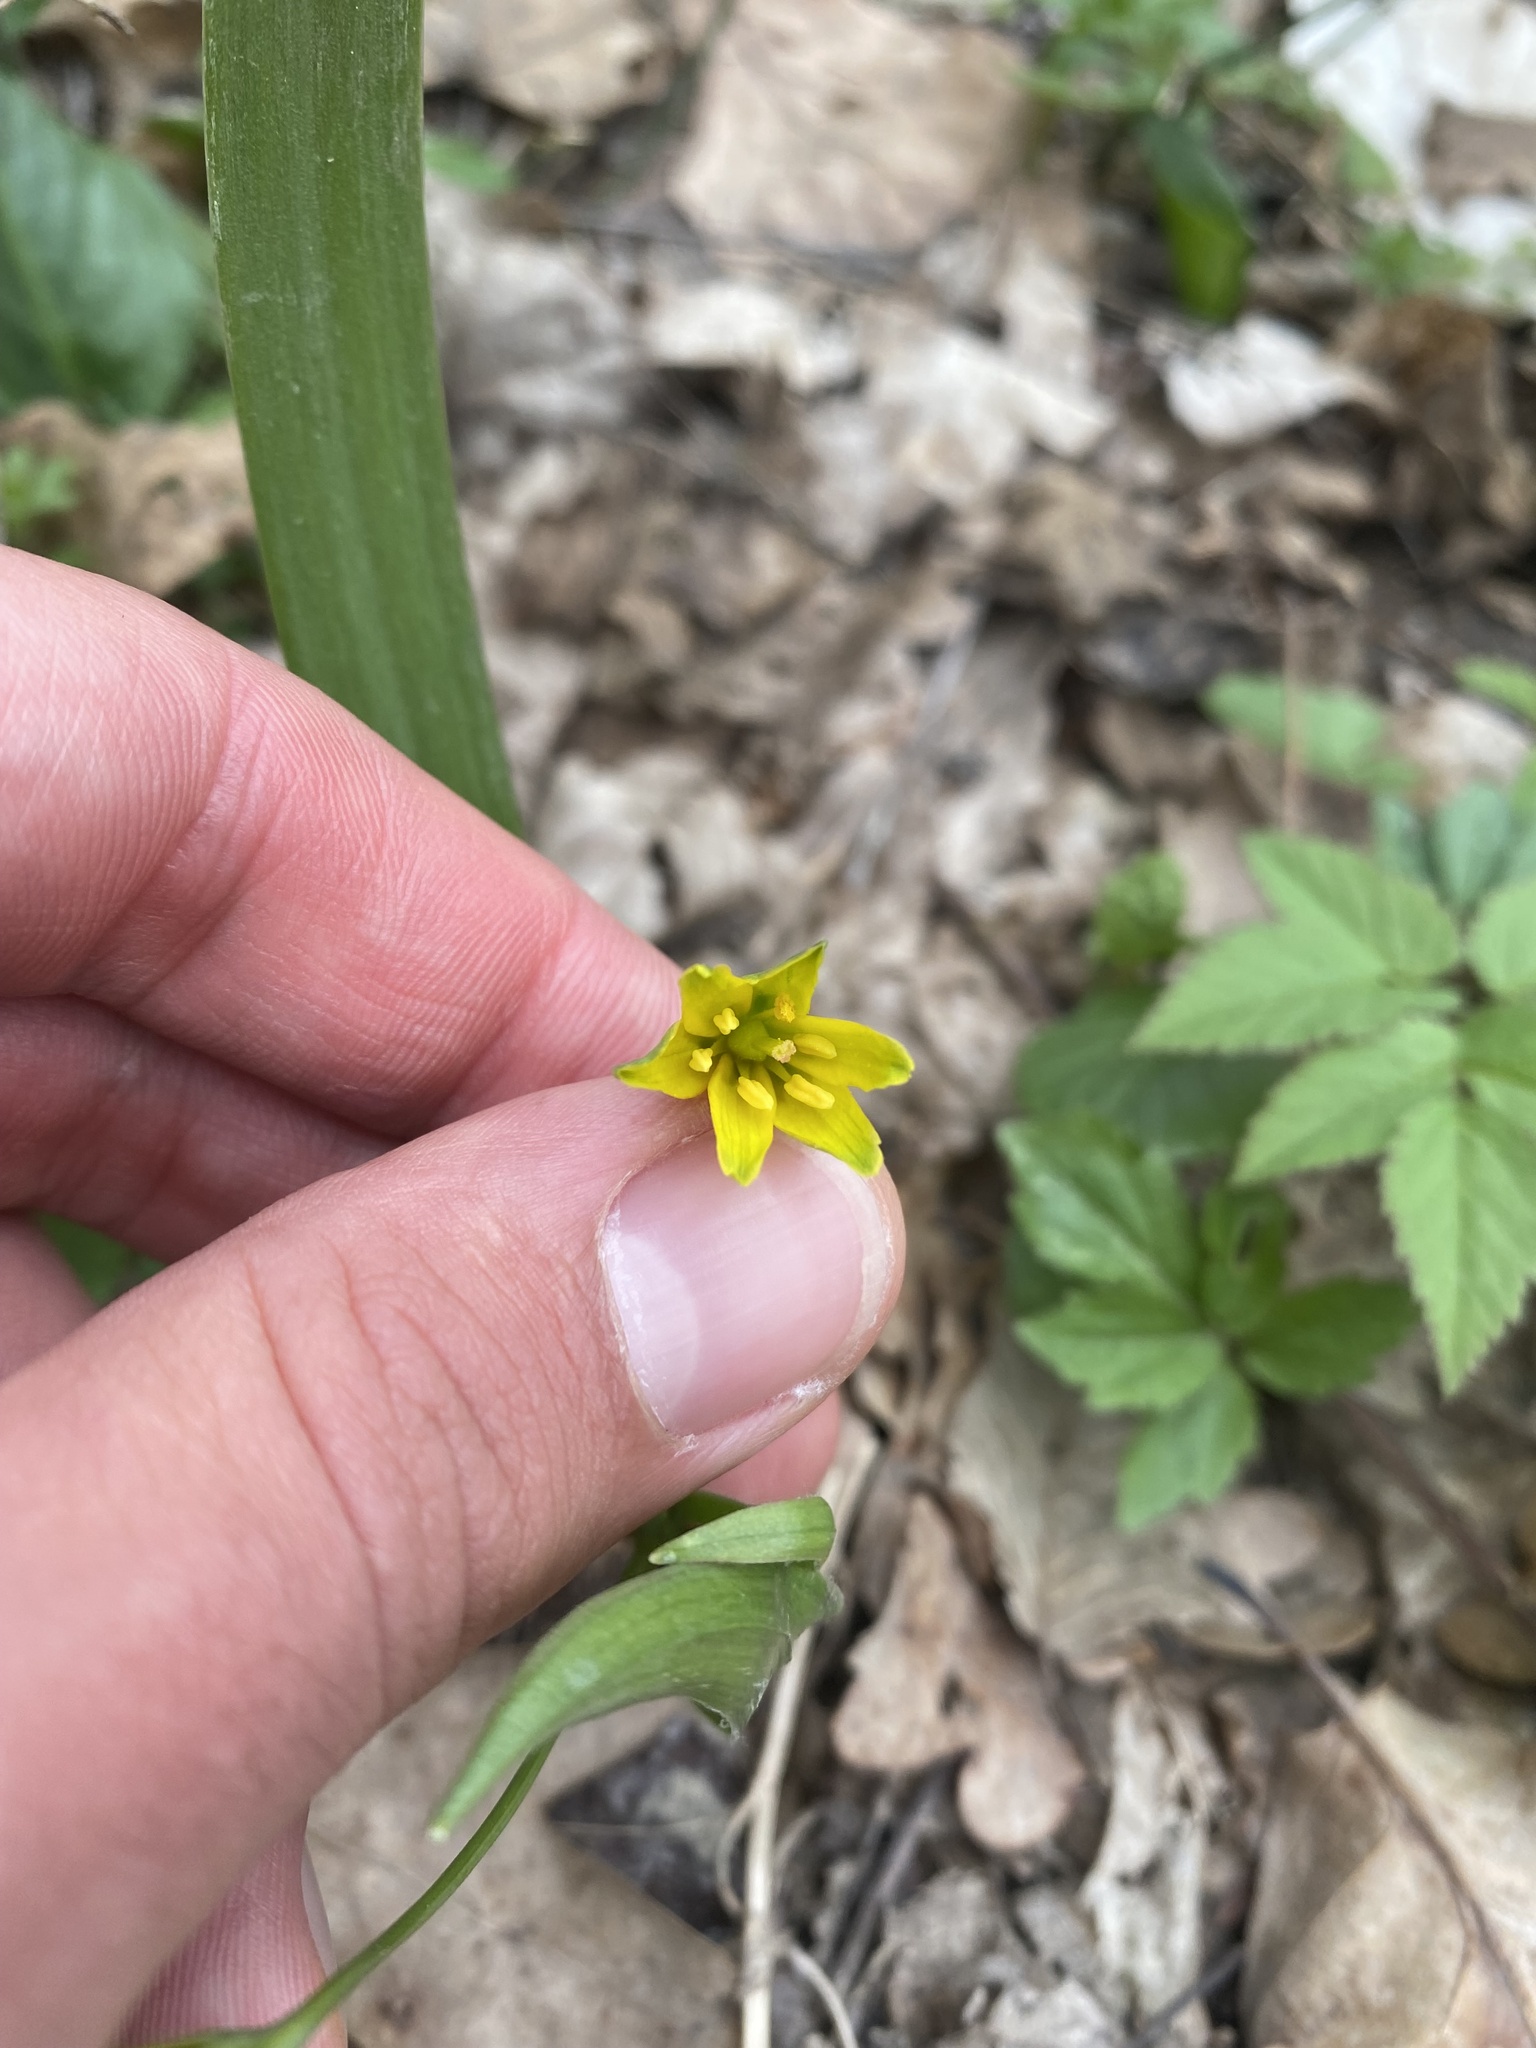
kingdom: Plantae
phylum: Tracheophyta
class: Liliopsida
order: Liliales
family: Liliaceae
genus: Gagea
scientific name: Gagea lutea
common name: Yellow star-of-bethlehem
